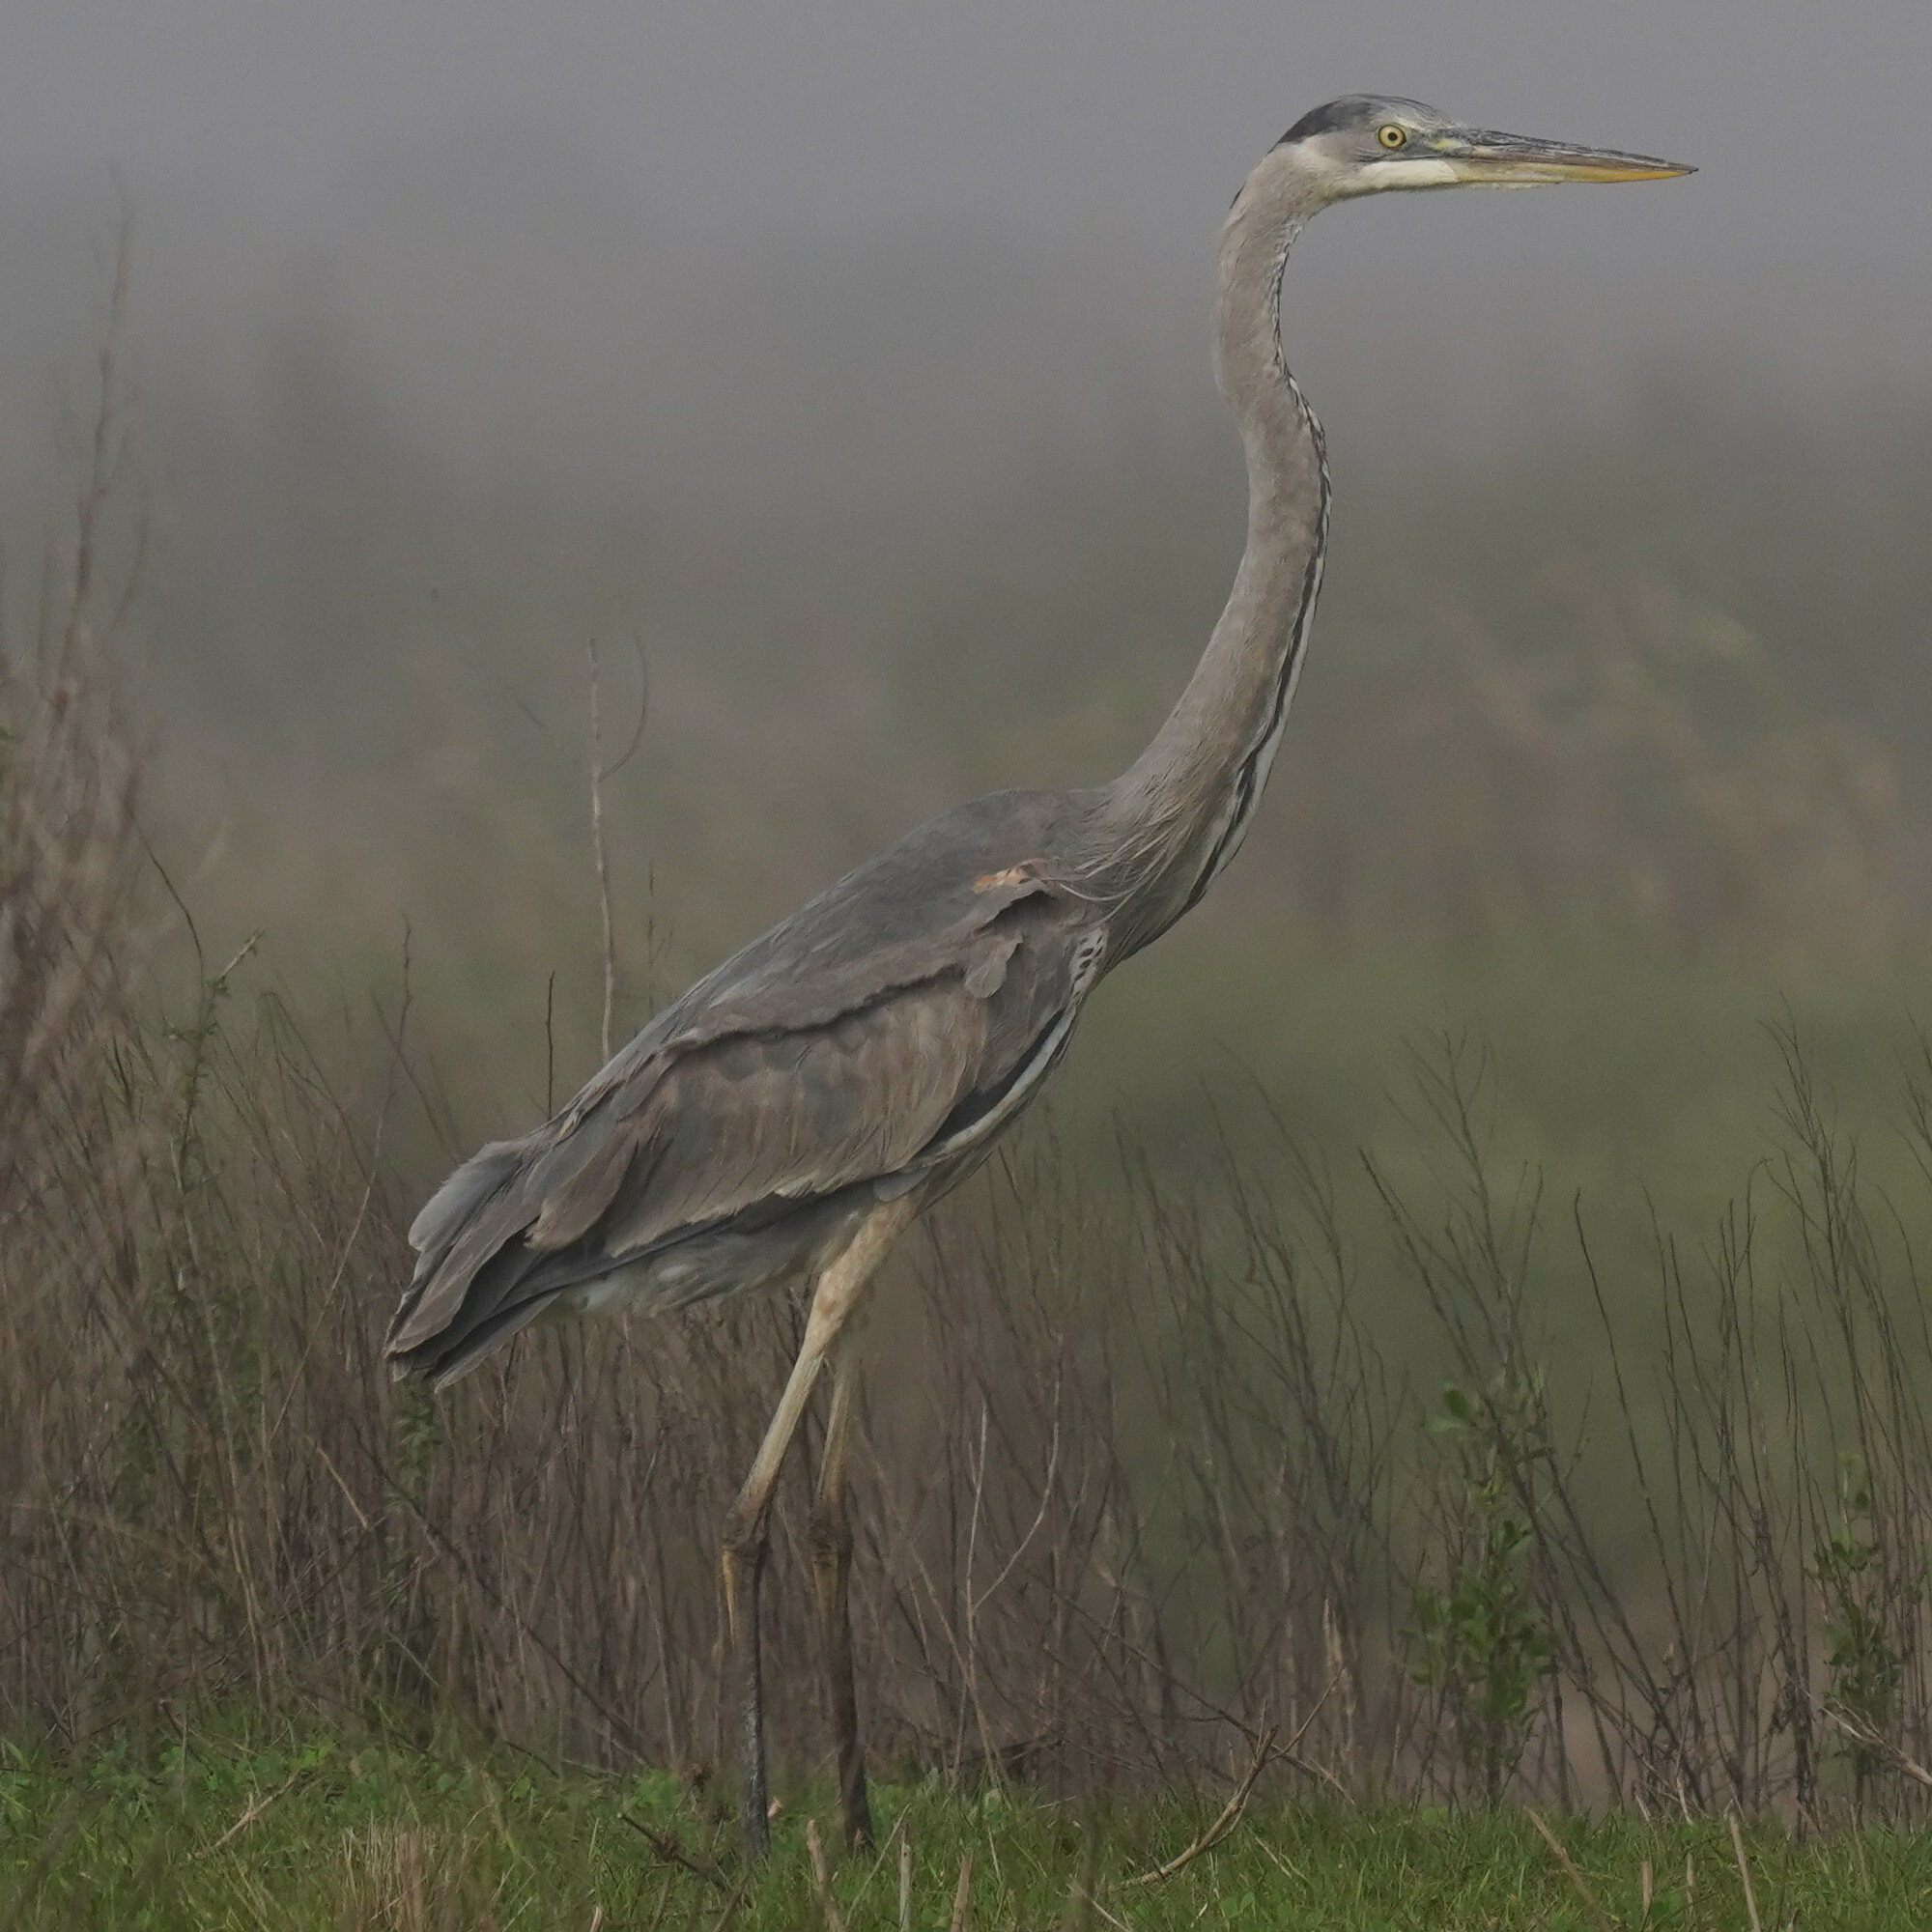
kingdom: Animalia
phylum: Chordata
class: Aves
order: Pelecaniformes
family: Ardeidae
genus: Ardea
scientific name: Ardea herodias
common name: Great blue heron
